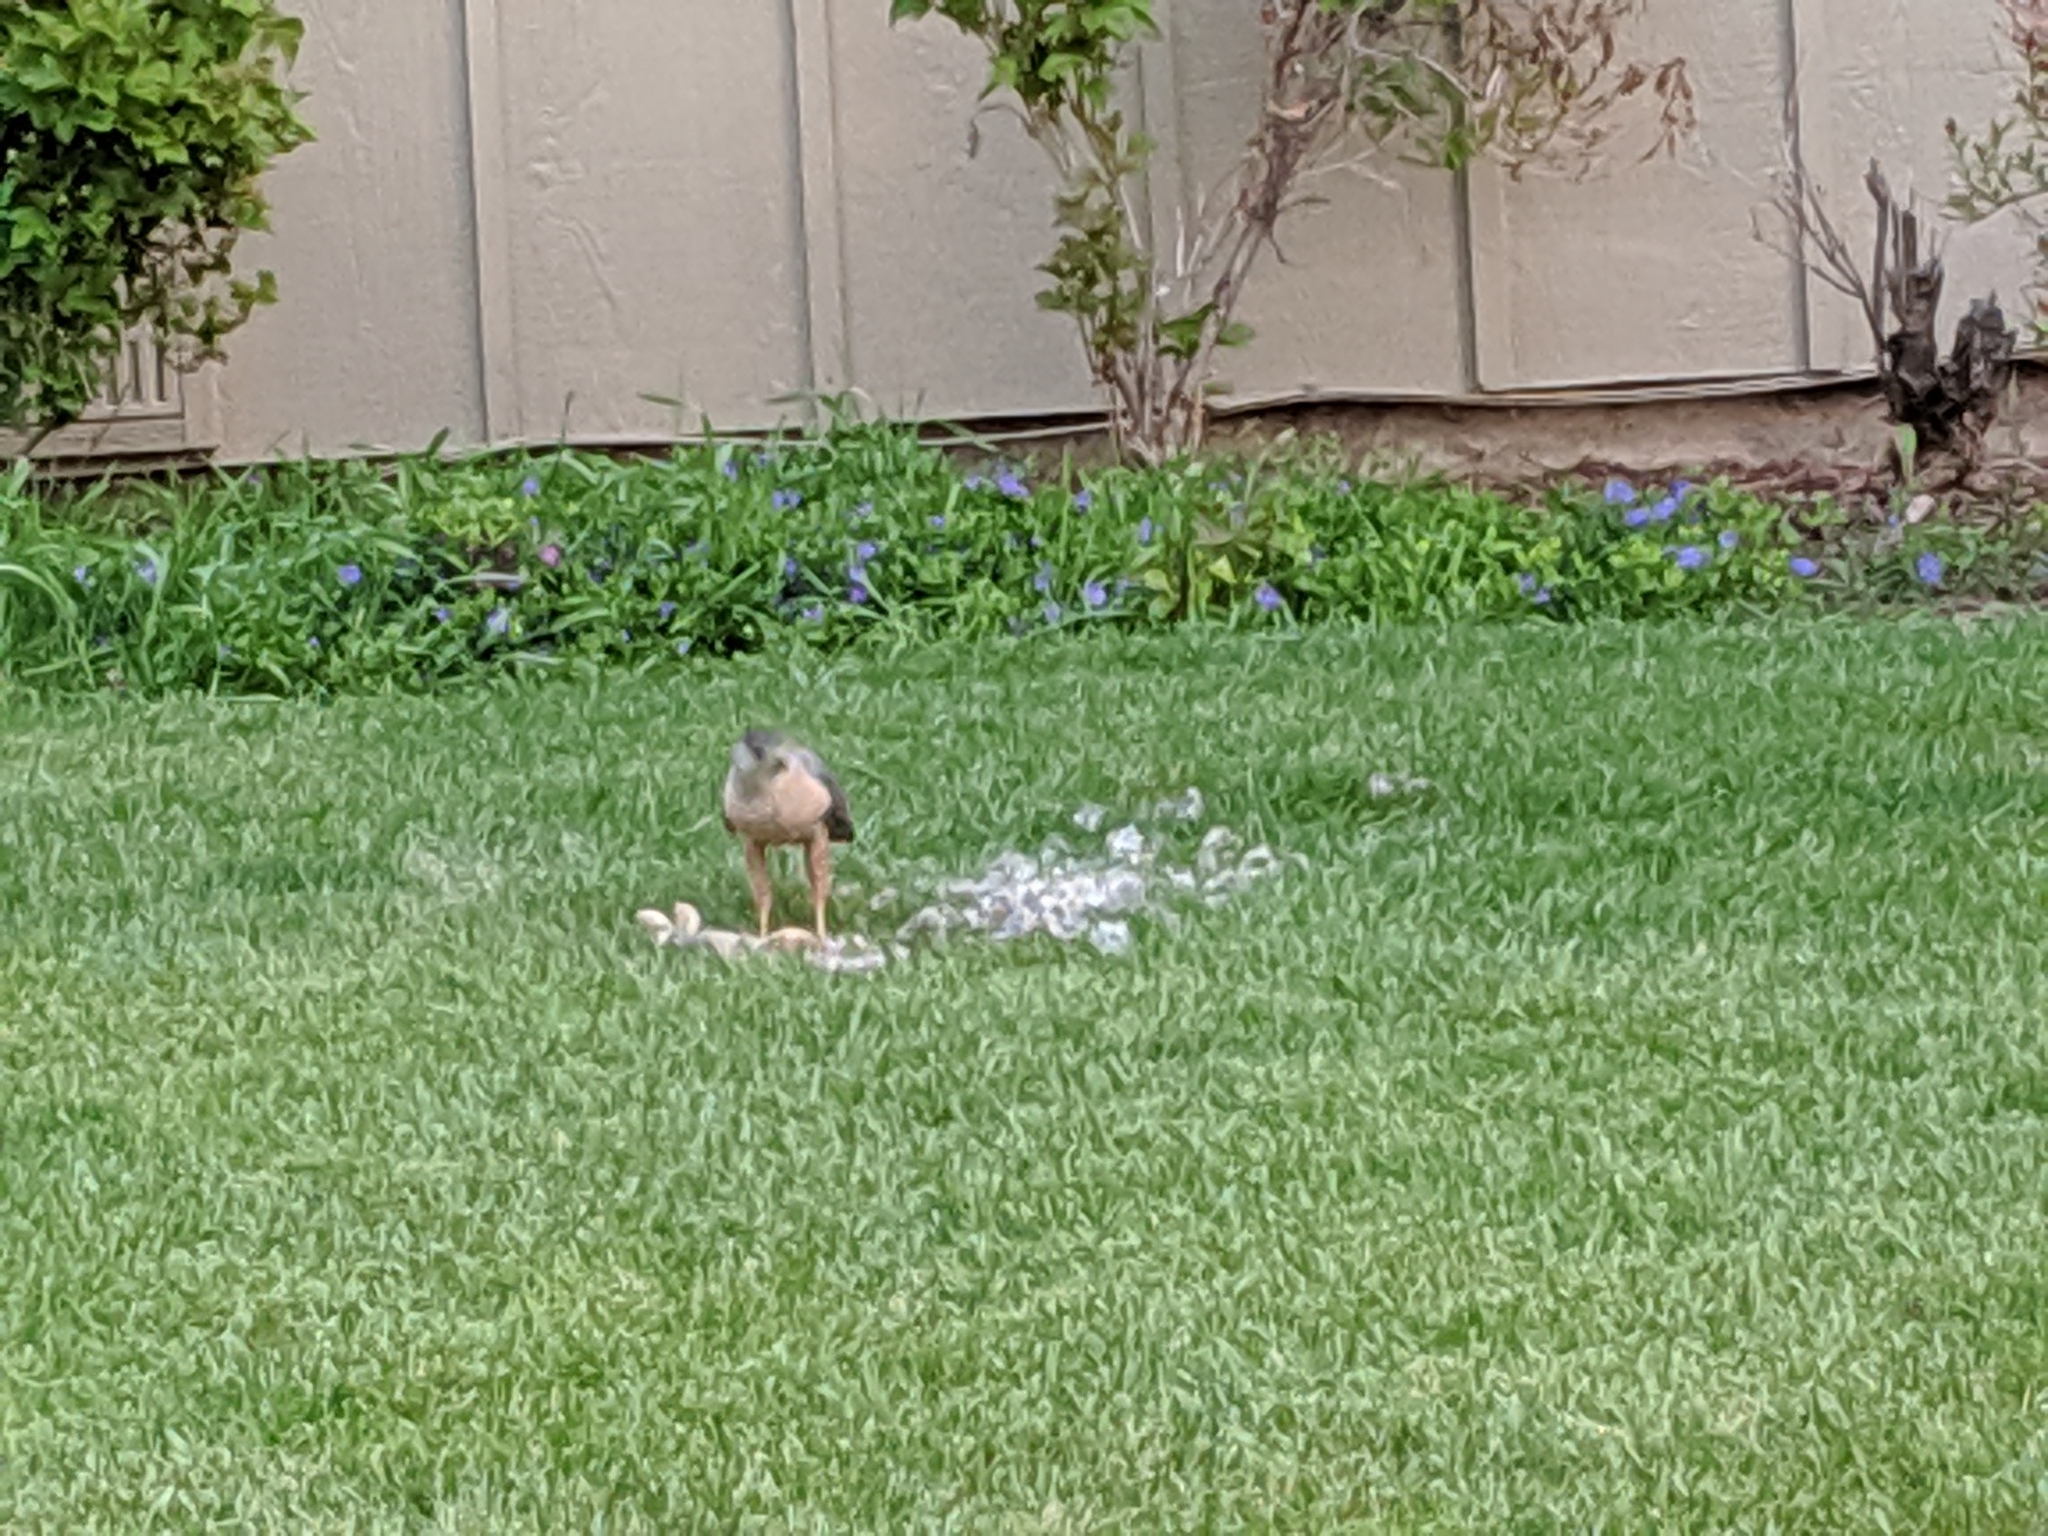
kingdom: Animalia
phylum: Chordata
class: Aves
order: Accipitriformes
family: Accipitridae
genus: Accipiter
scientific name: Accipiter cooperii
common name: Cooper's hawk
